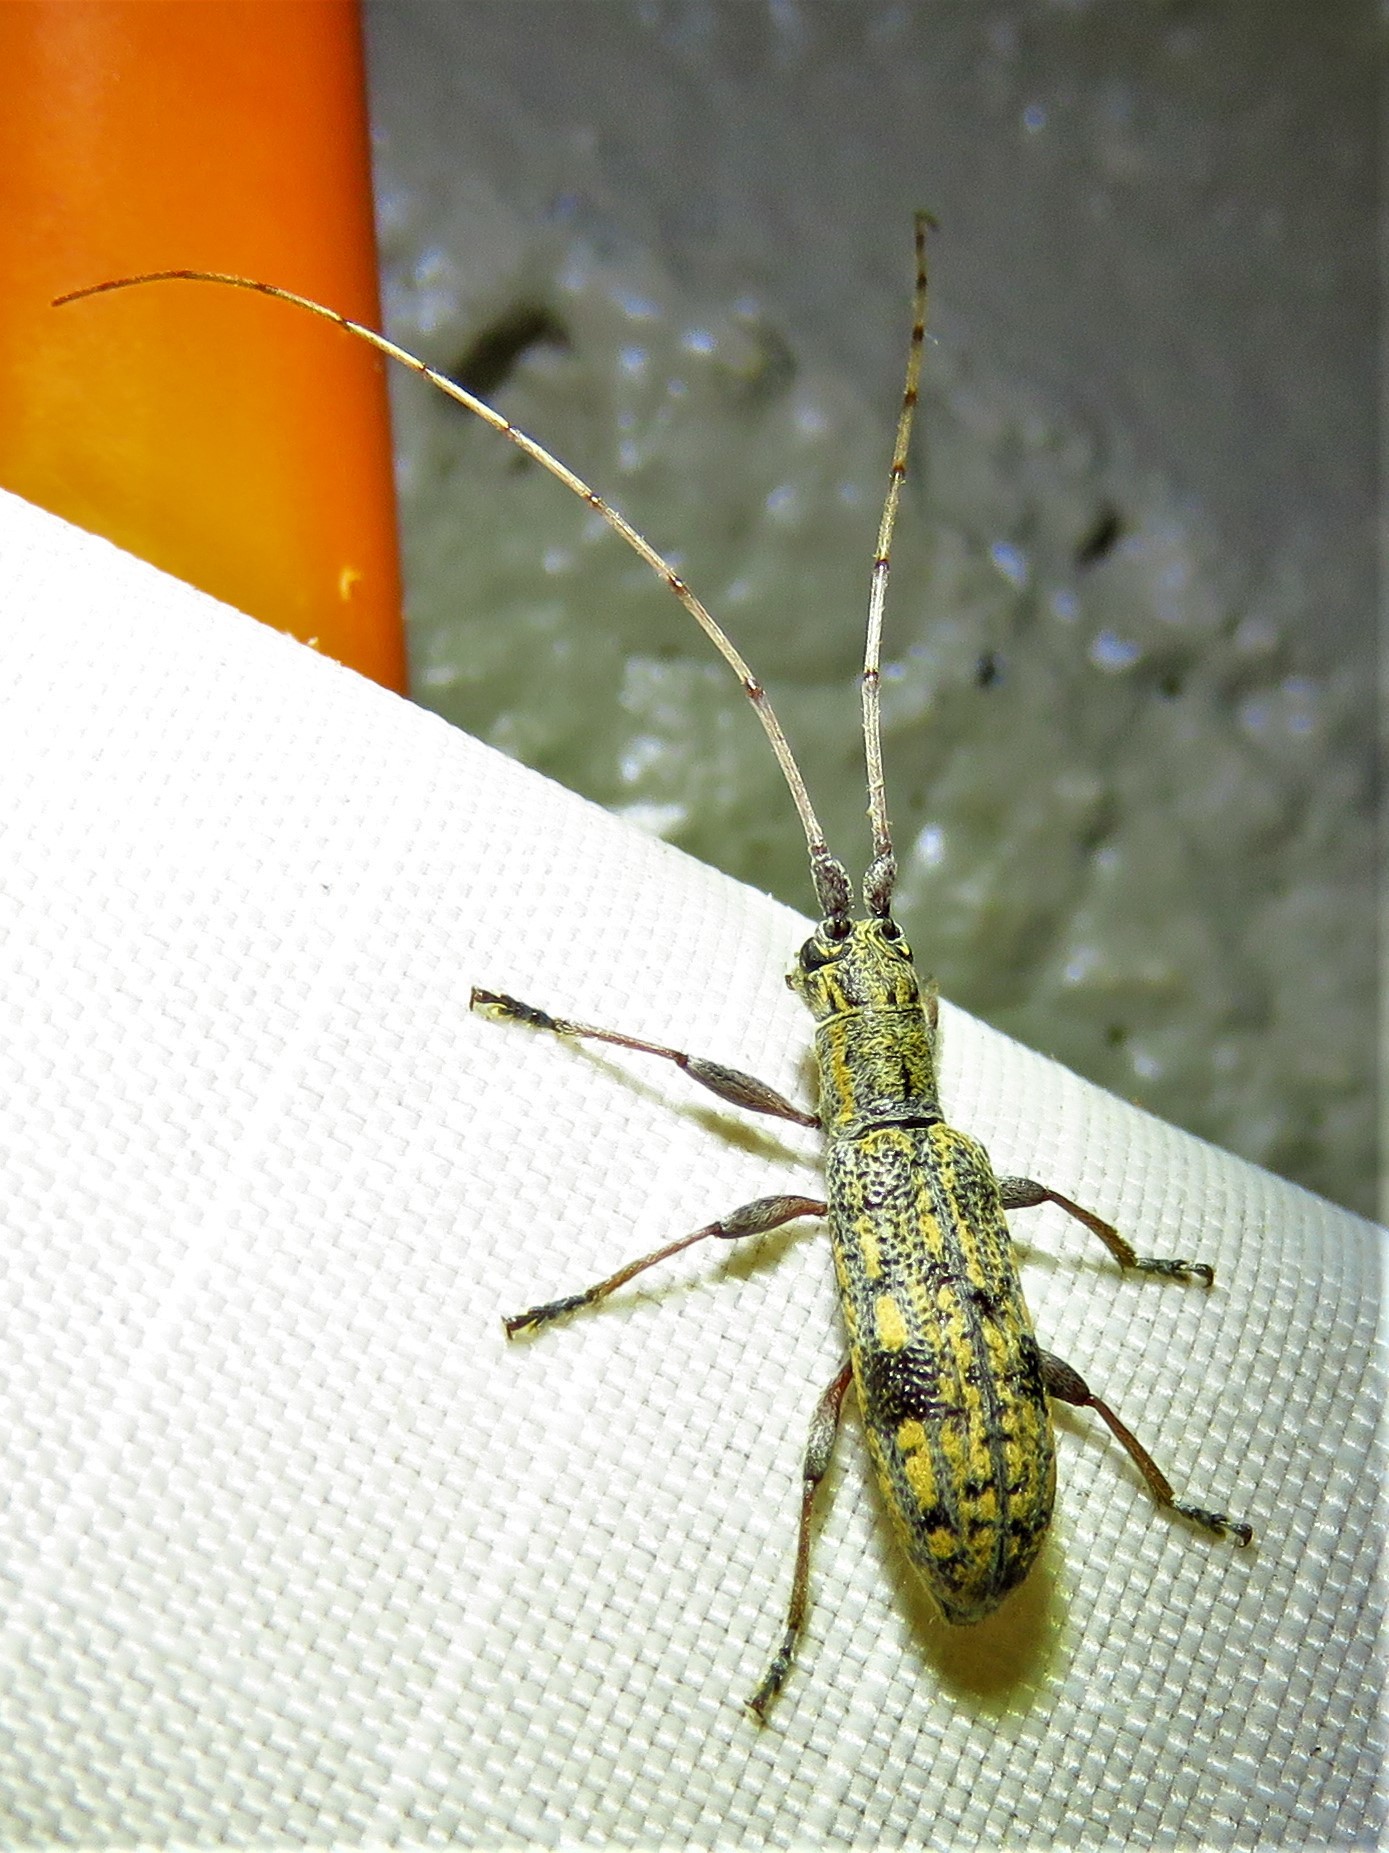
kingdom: Animalia
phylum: Arthropoda
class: Insecta
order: Coleoptera
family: Cerambycidae
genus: Dorcaschema
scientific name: Dorcaschema alternatum
